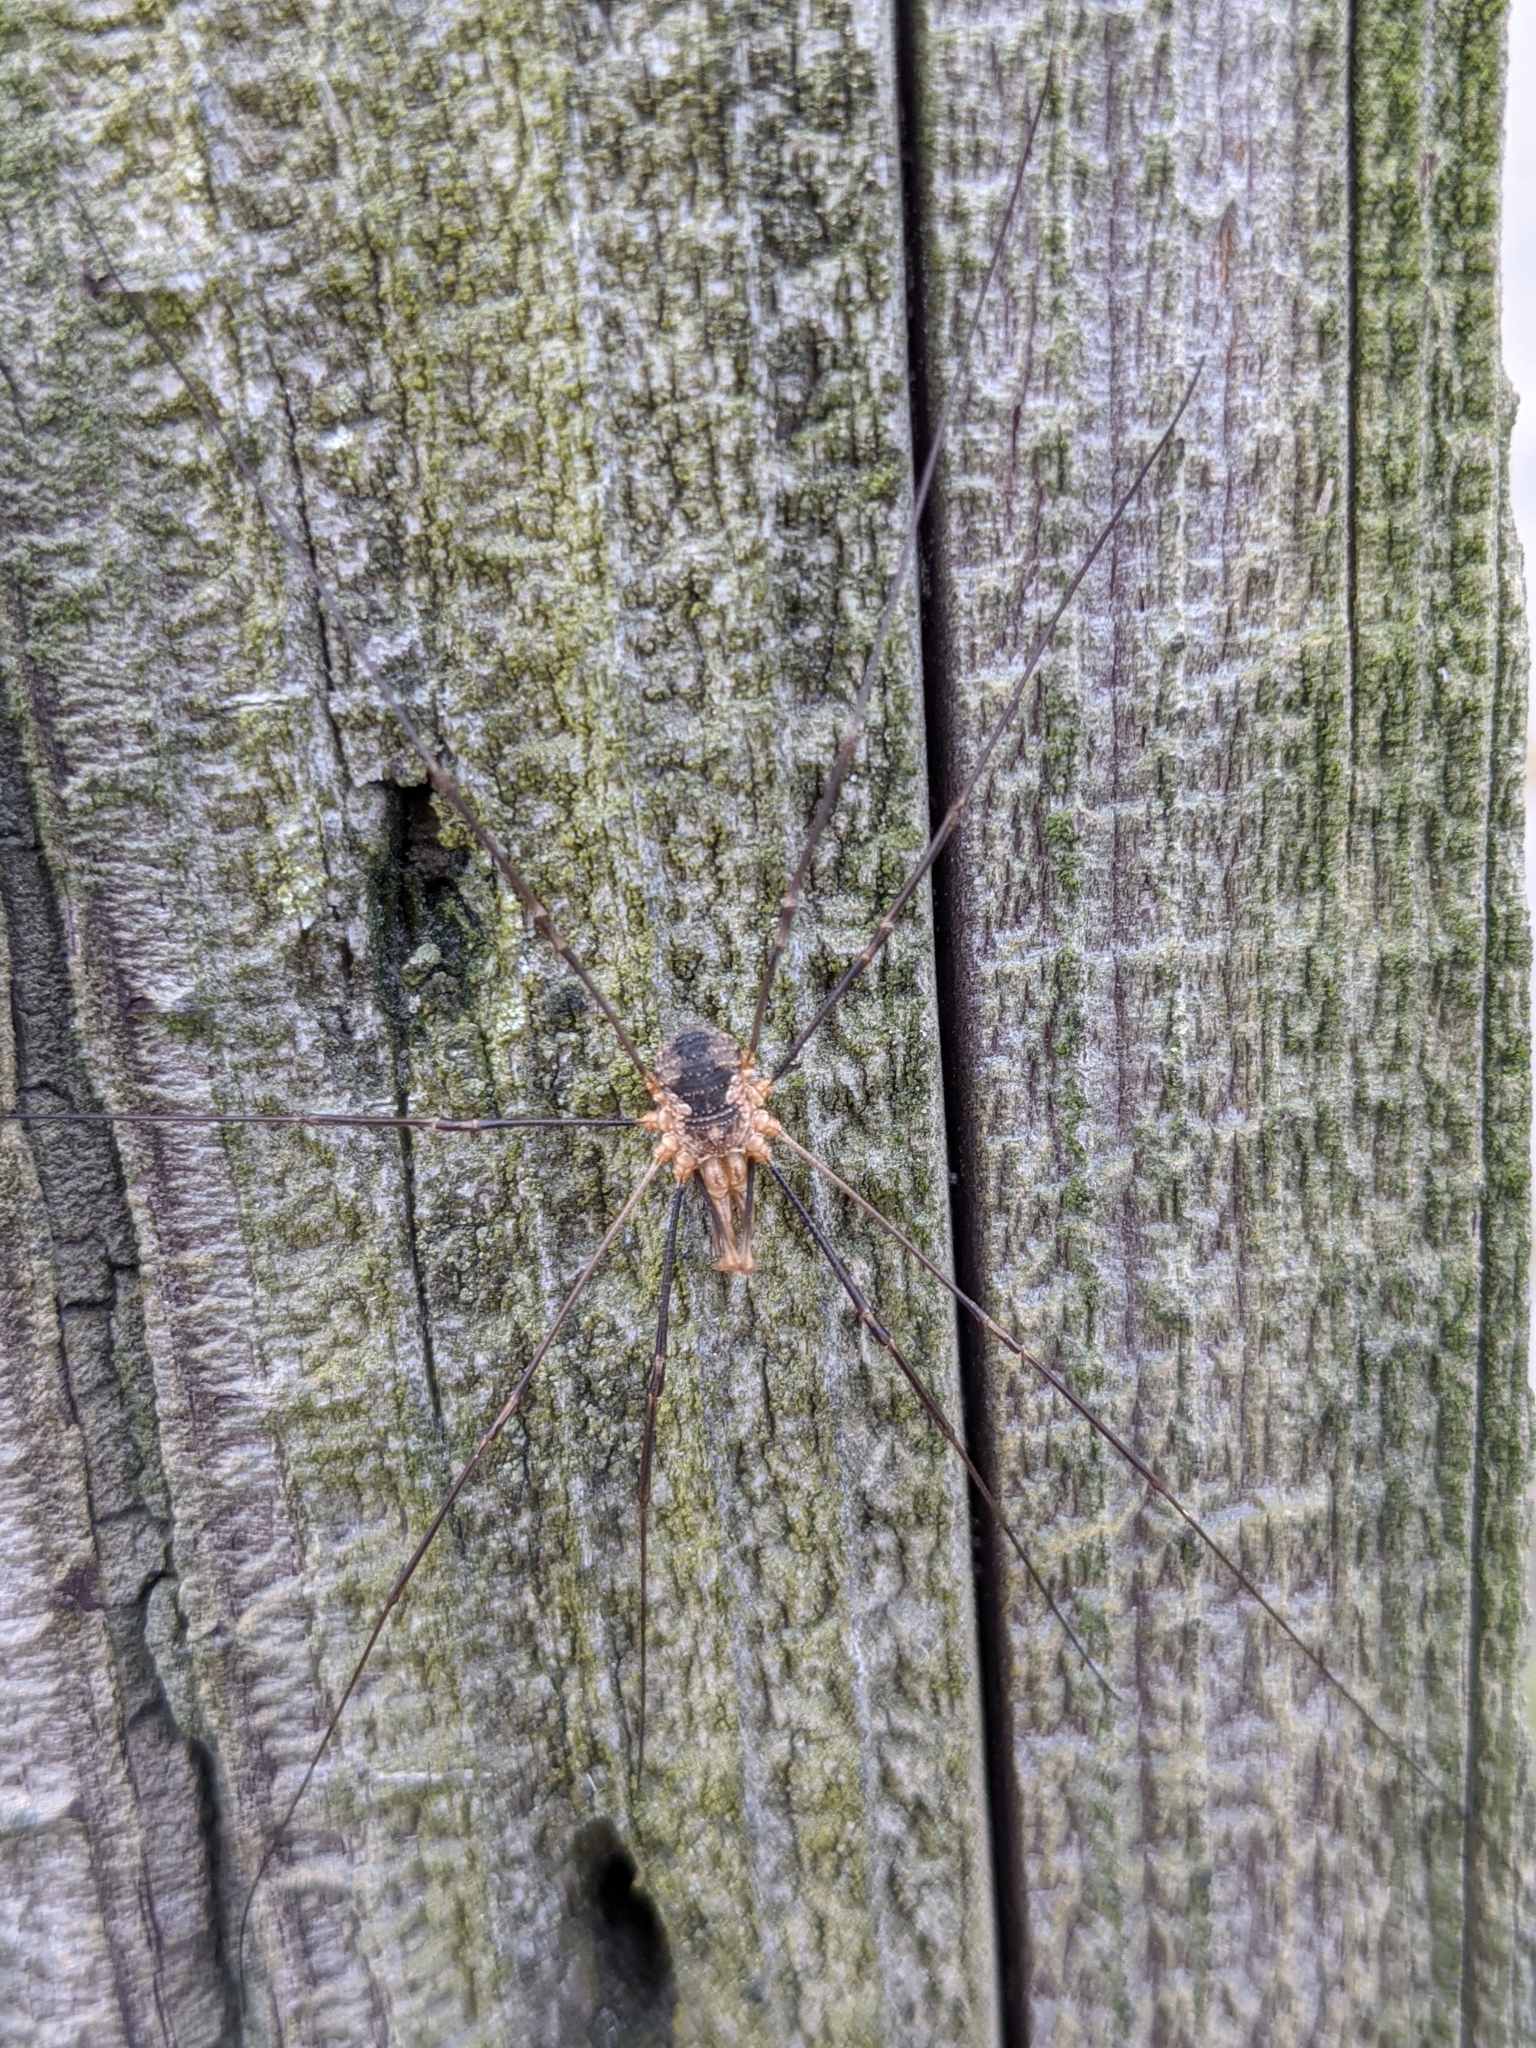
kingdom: Animalia
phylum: Arthropoda
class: Arachnida
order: Opiliones
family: Phalangiidae
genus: Phalangium
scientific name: Phalangium opilio
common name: Daddy longleg
